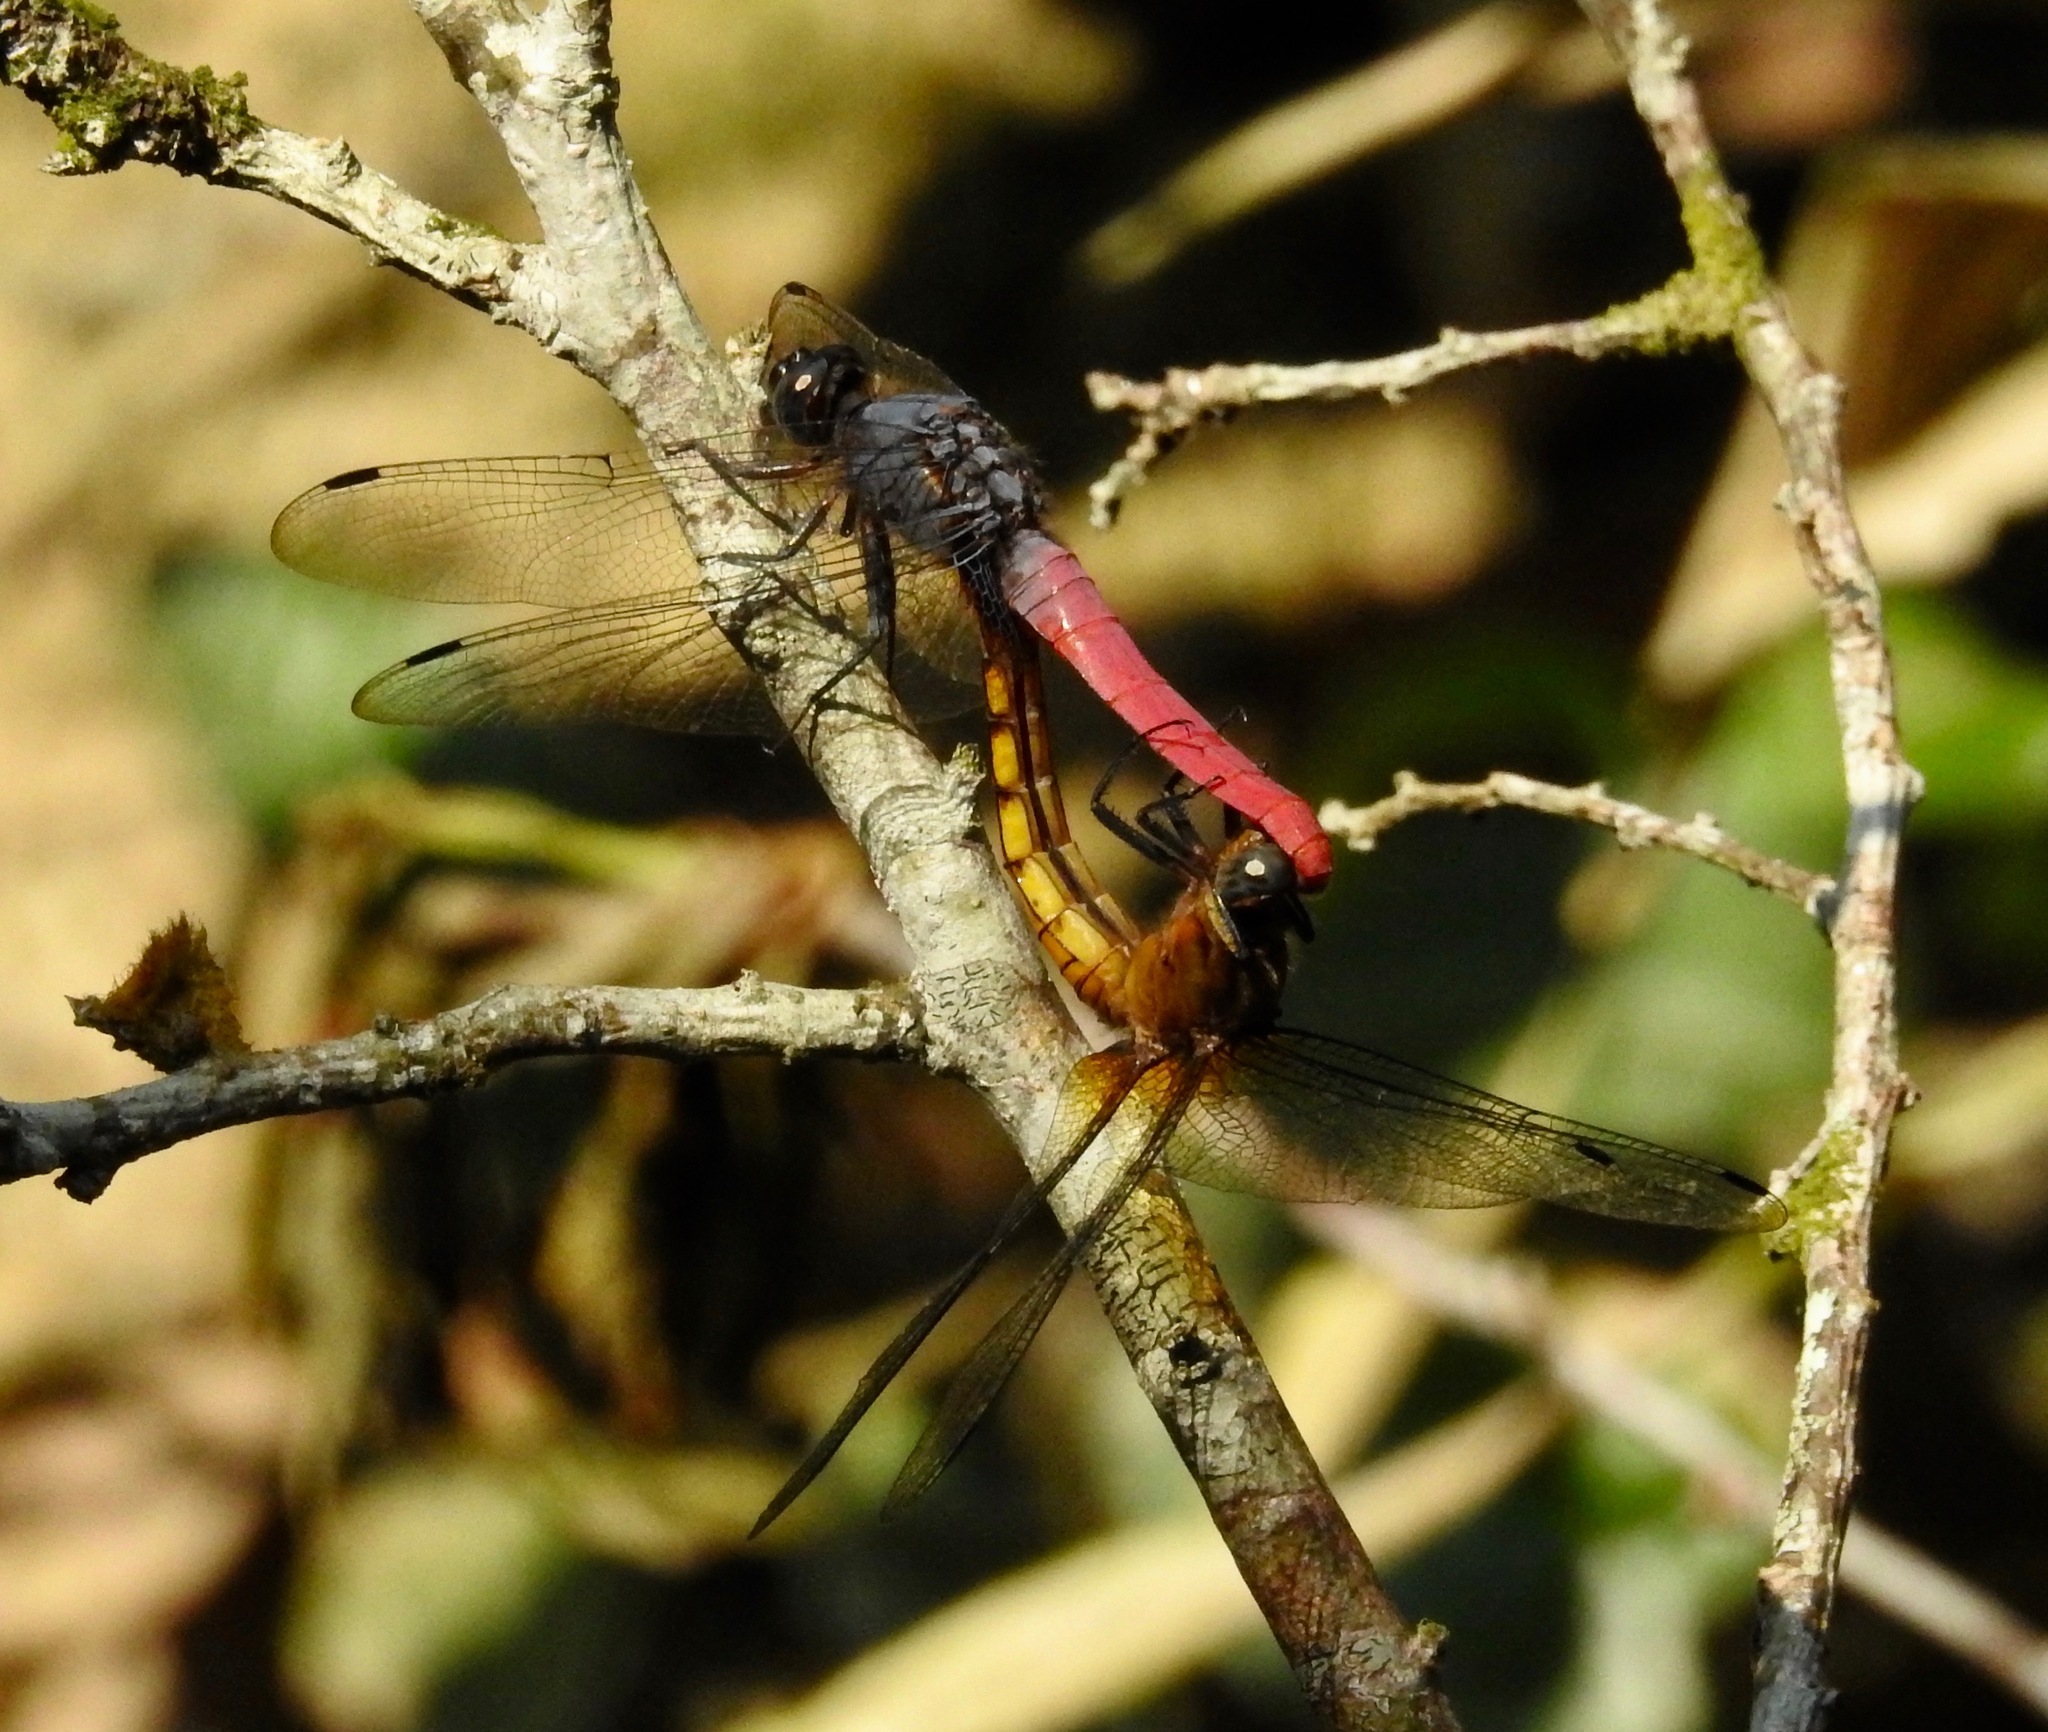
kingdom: Animalia
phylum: Arthropoda
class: Insecta
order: Odonata
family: Libellulidae
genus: Orthetrum
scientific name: Orthetrum pruinosum
